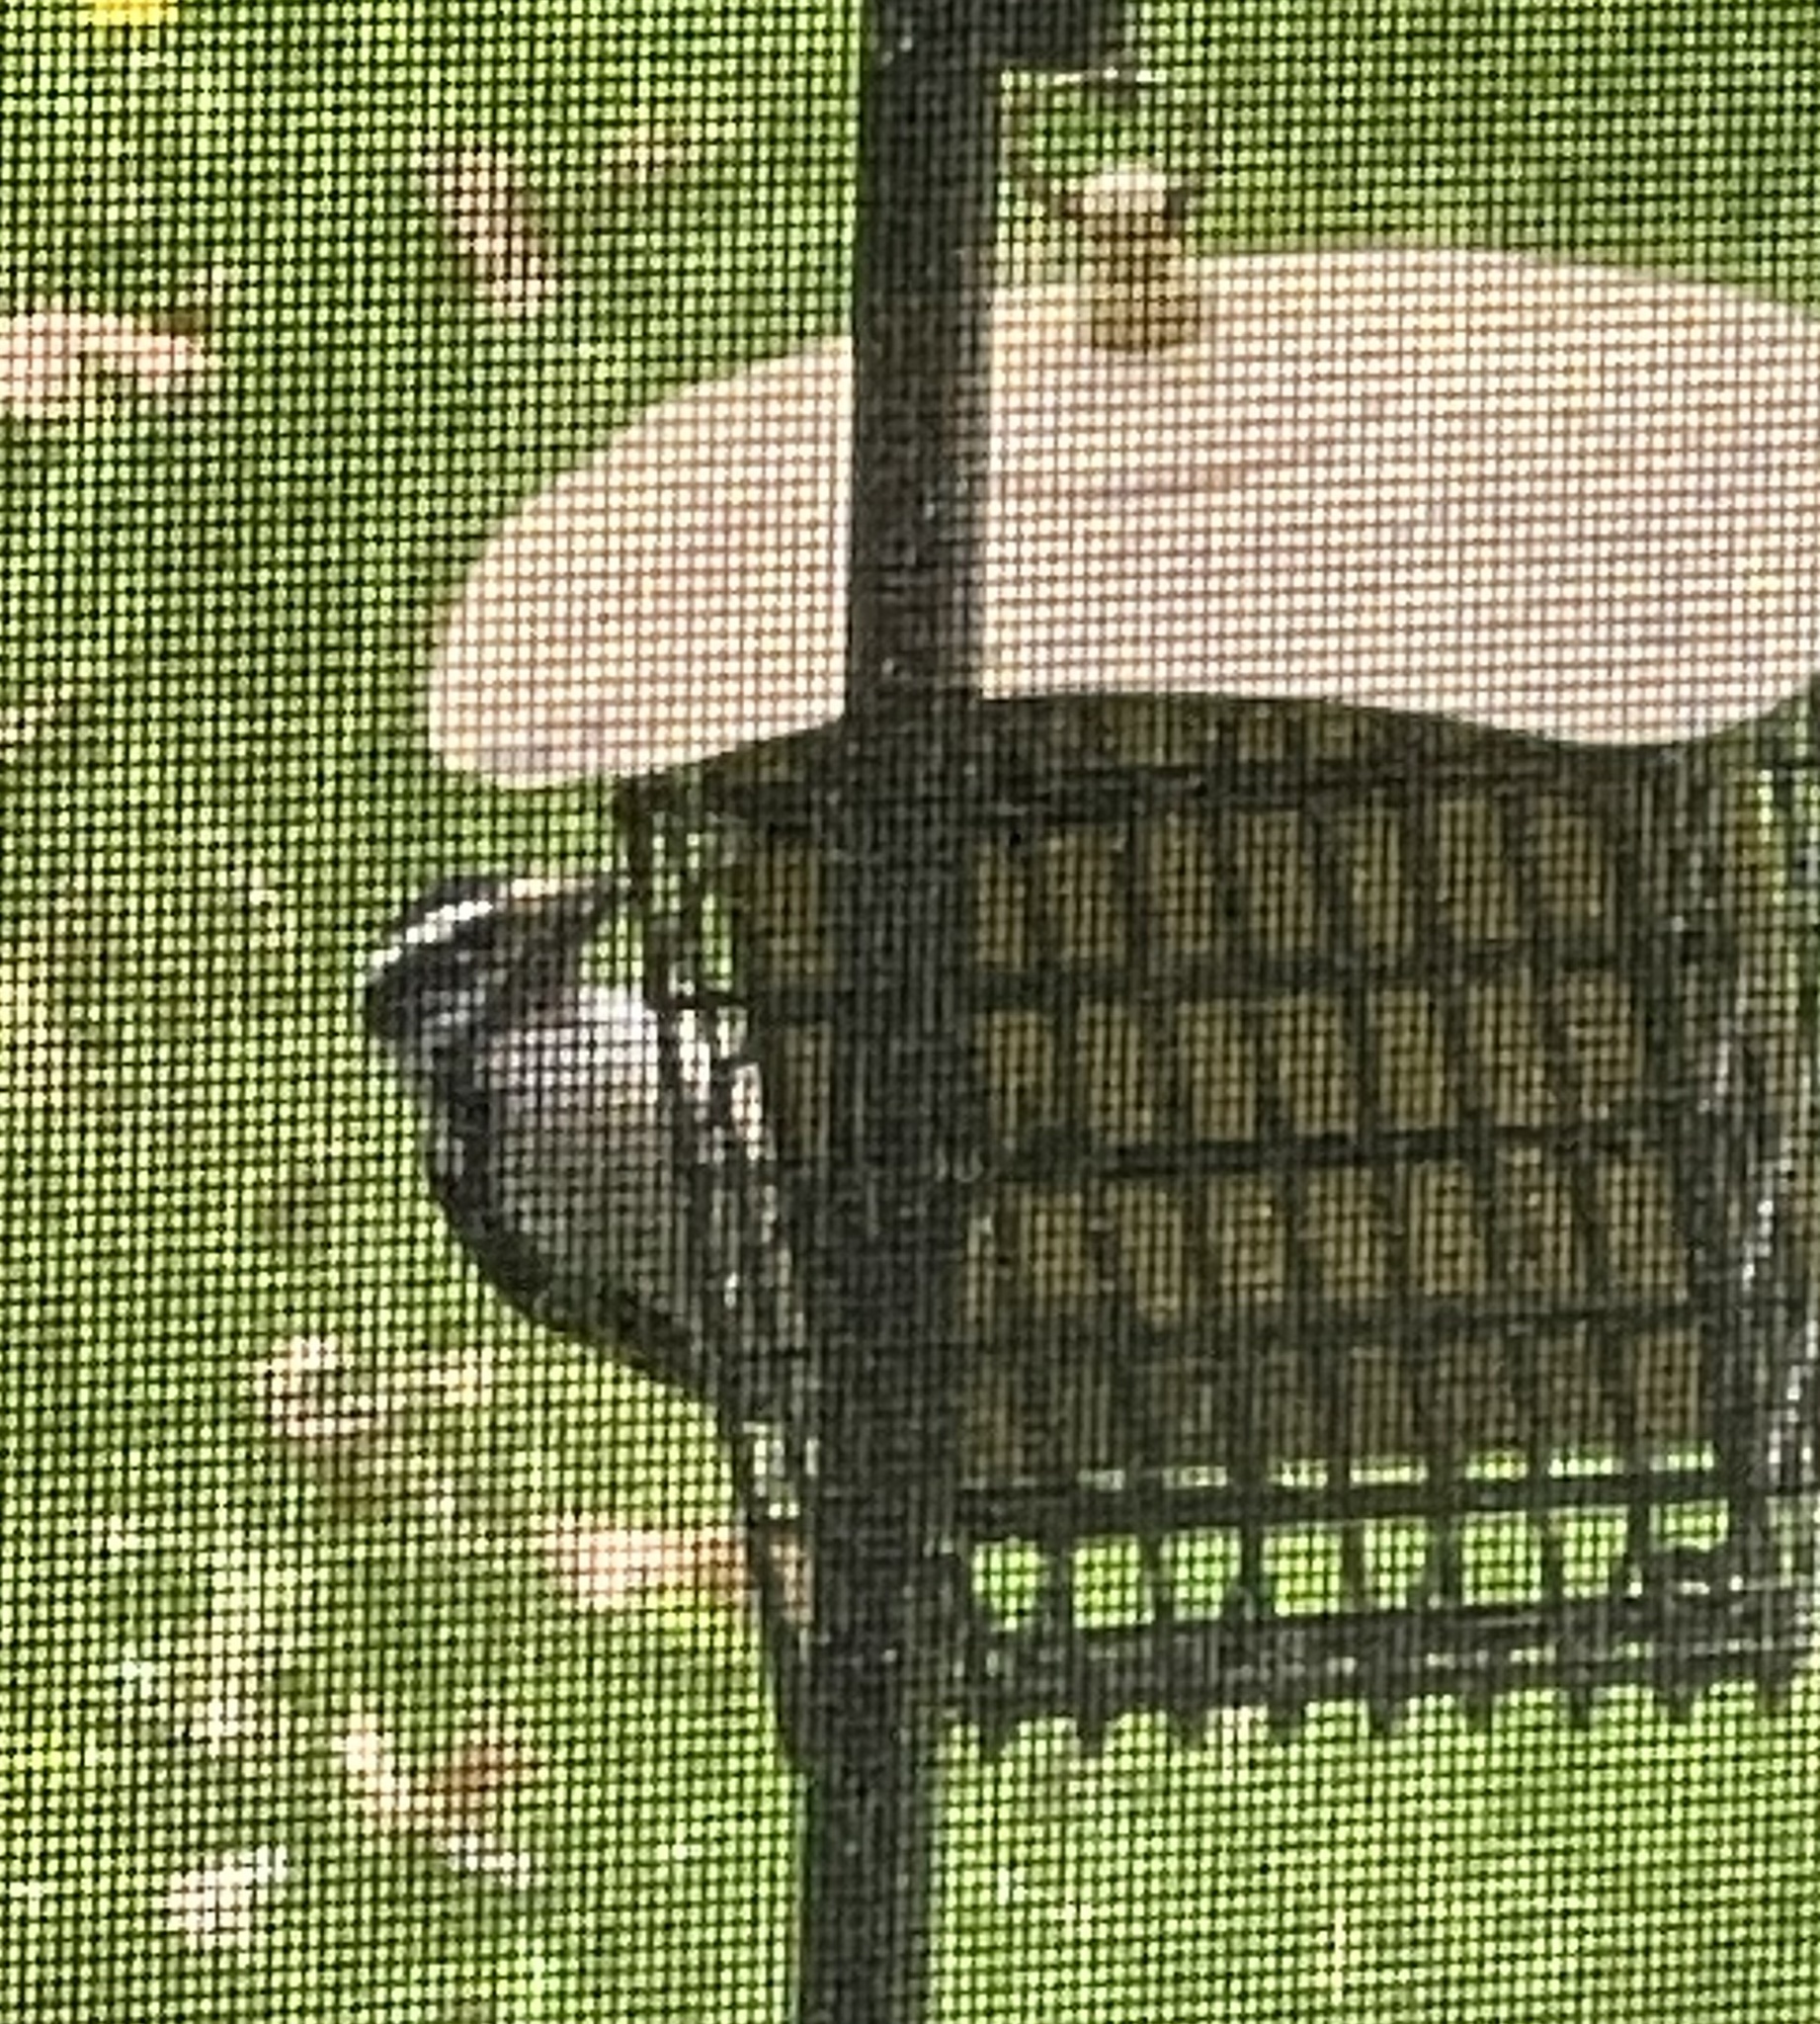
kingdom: Animalia
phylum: Chordata
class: Aves
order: Piciformes
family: Picidae
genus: Dryobates
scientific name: Dryobates pubescens
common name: Downy woodpecker
